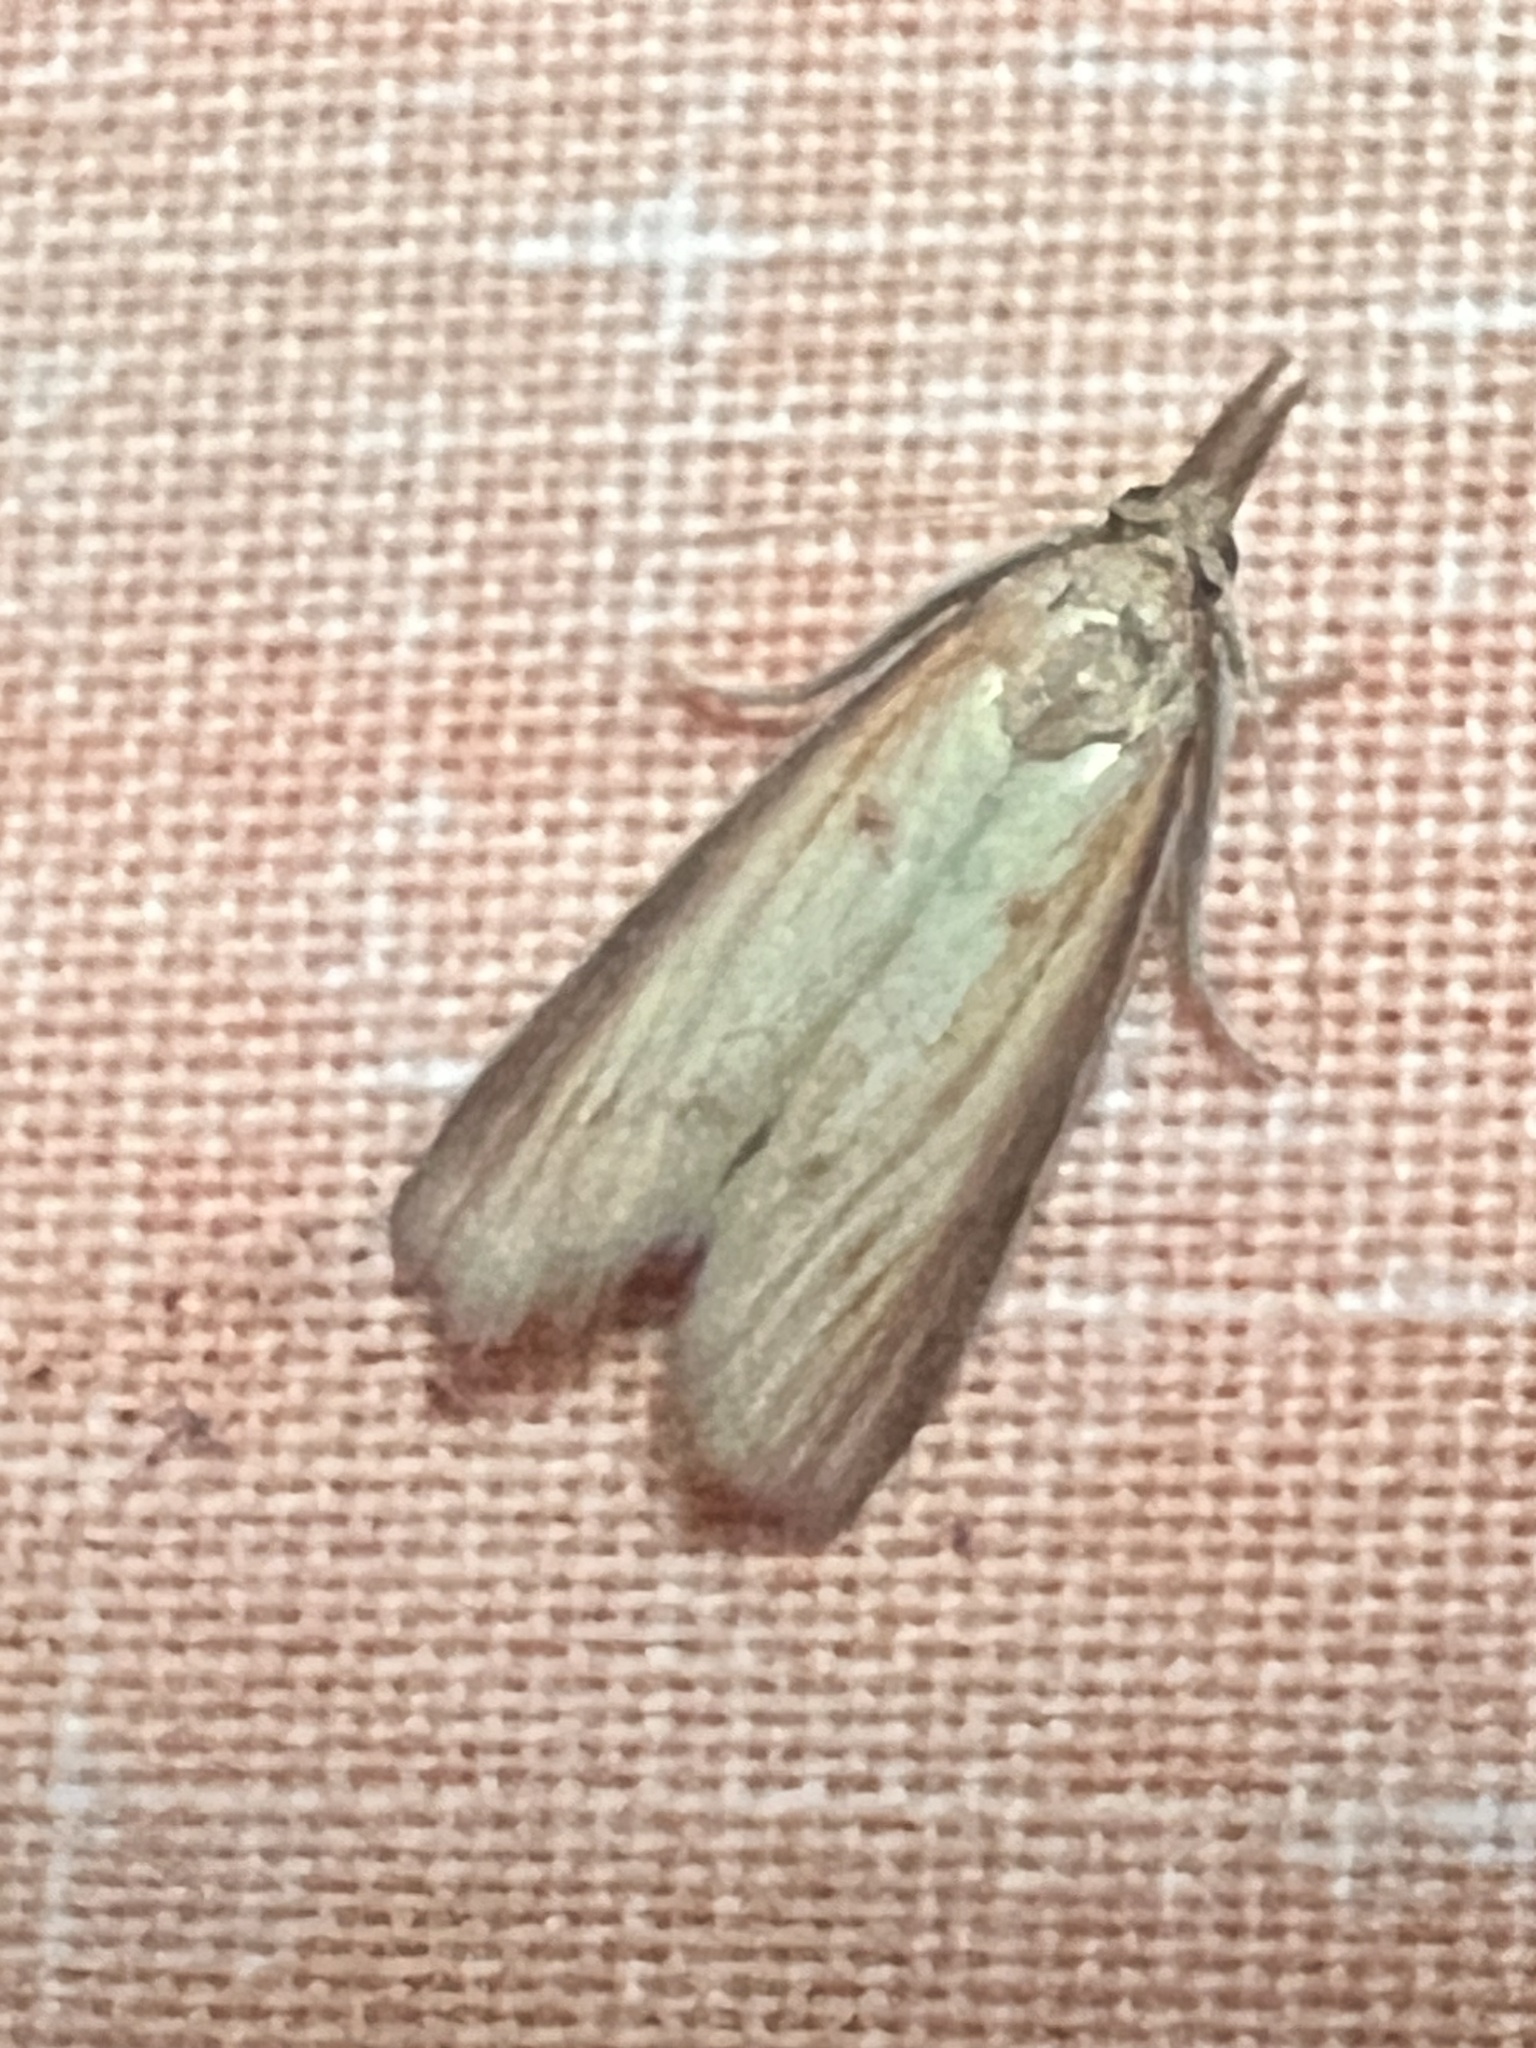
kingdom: Animalia
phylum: Arthropoda
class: Insecta
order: Lepidoptera
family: Pyralidae
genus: Mampava
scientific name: Mampava rhodoneura
